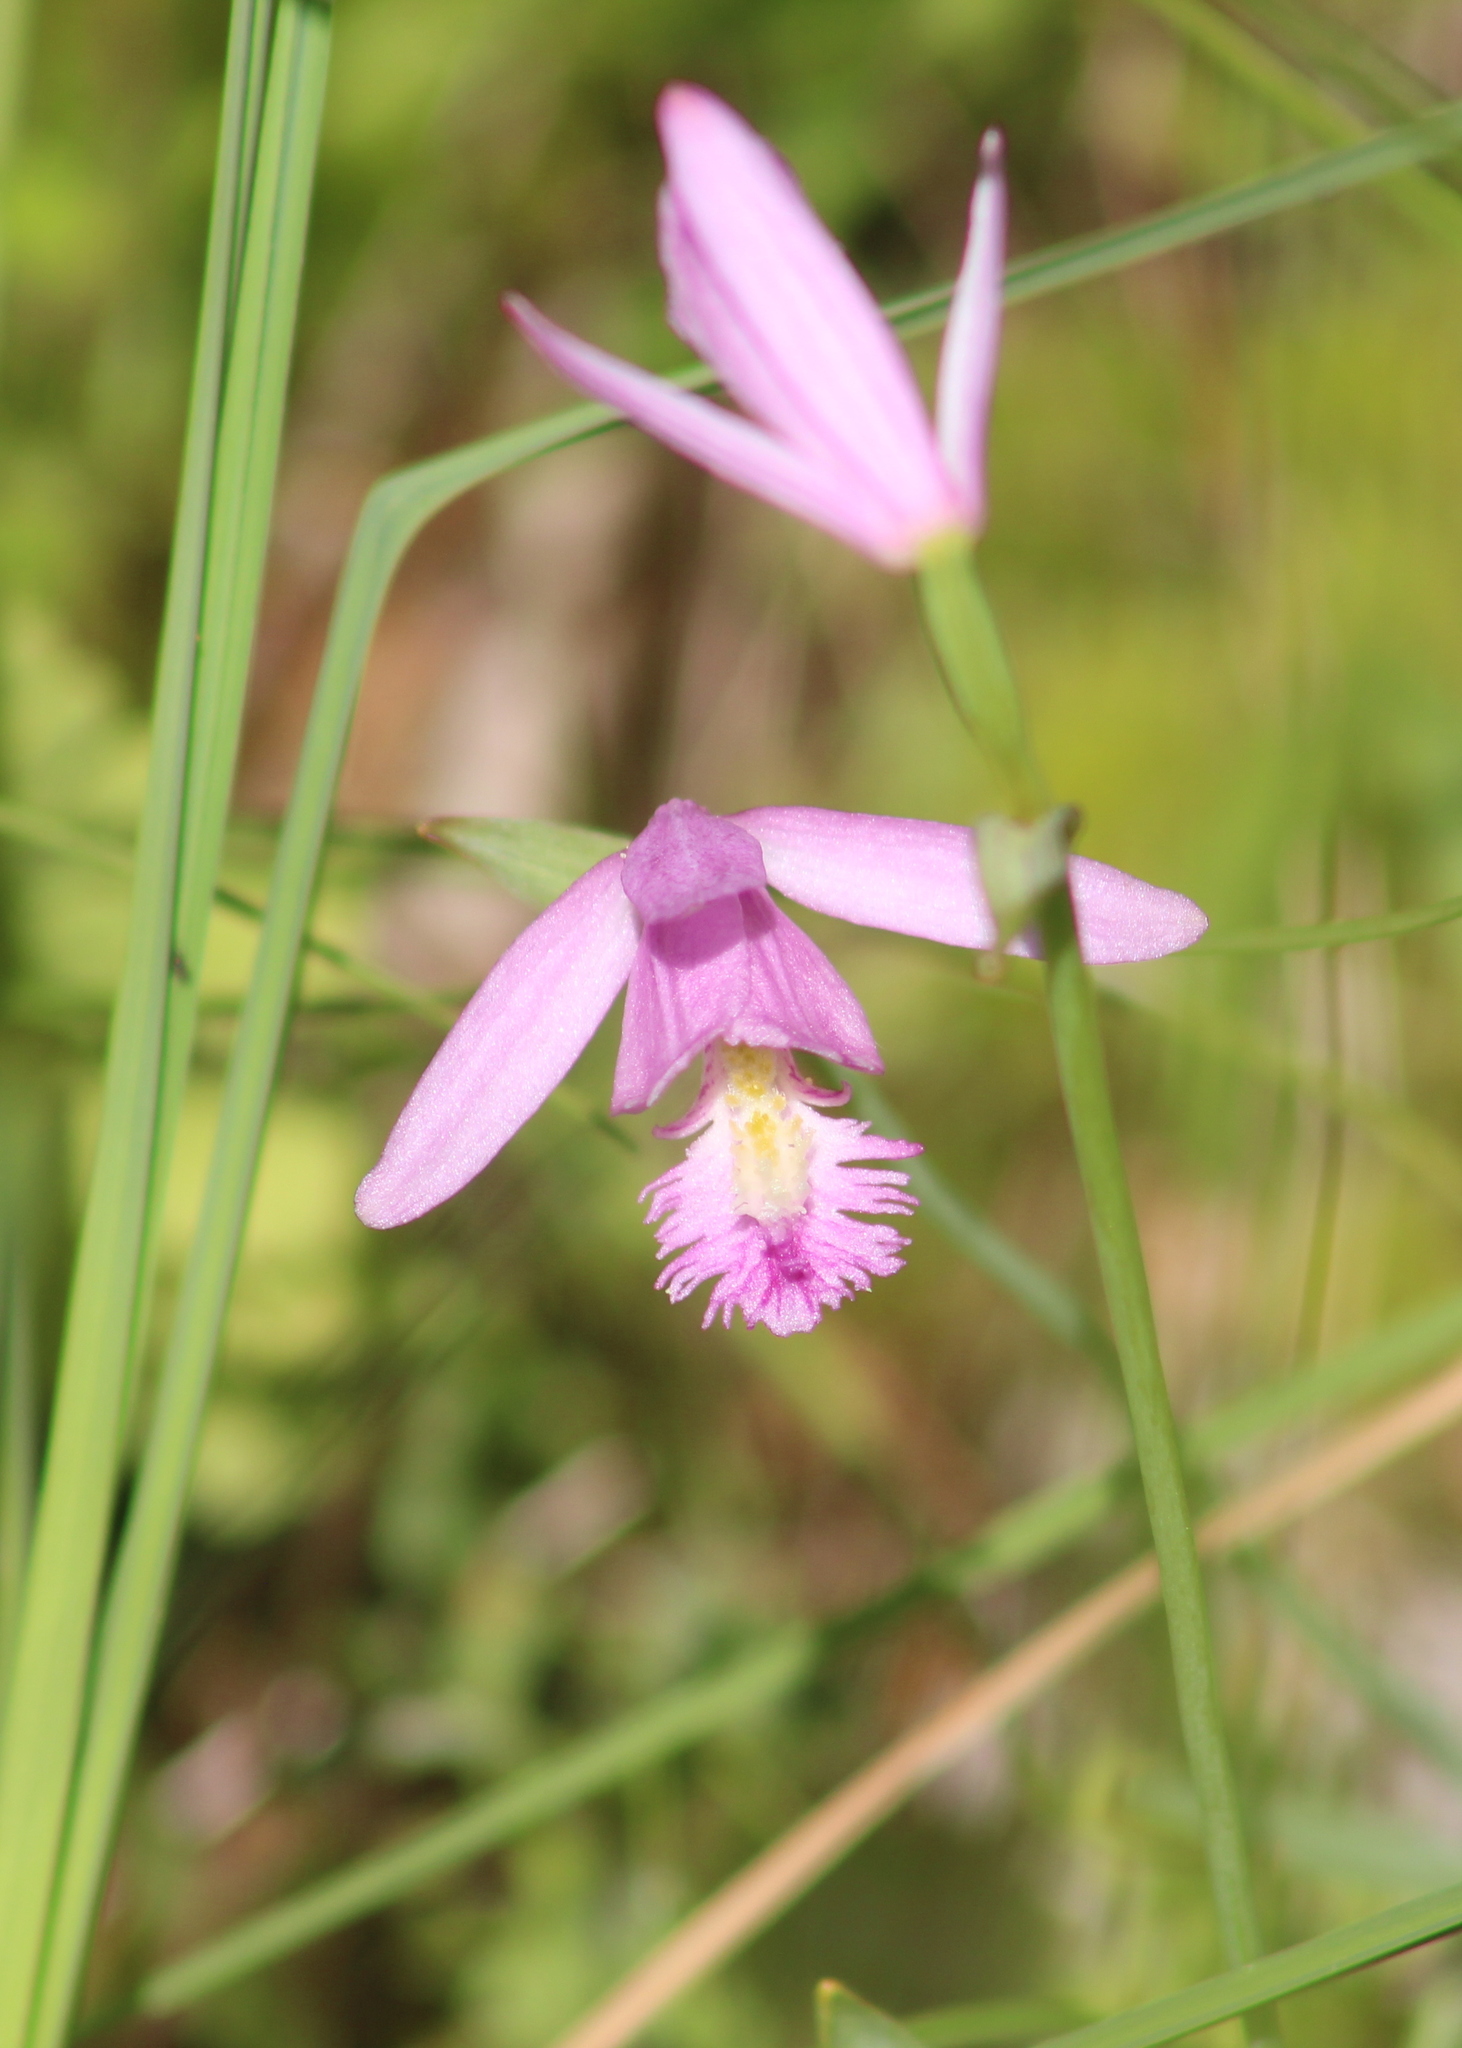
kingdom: Plantae
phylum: Tracheophyta
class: Liliopsida
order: Asparagales
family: Orchidaceae
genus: Pogonia
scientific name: Pogonia ophioglossoides
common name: Rose pogonia
